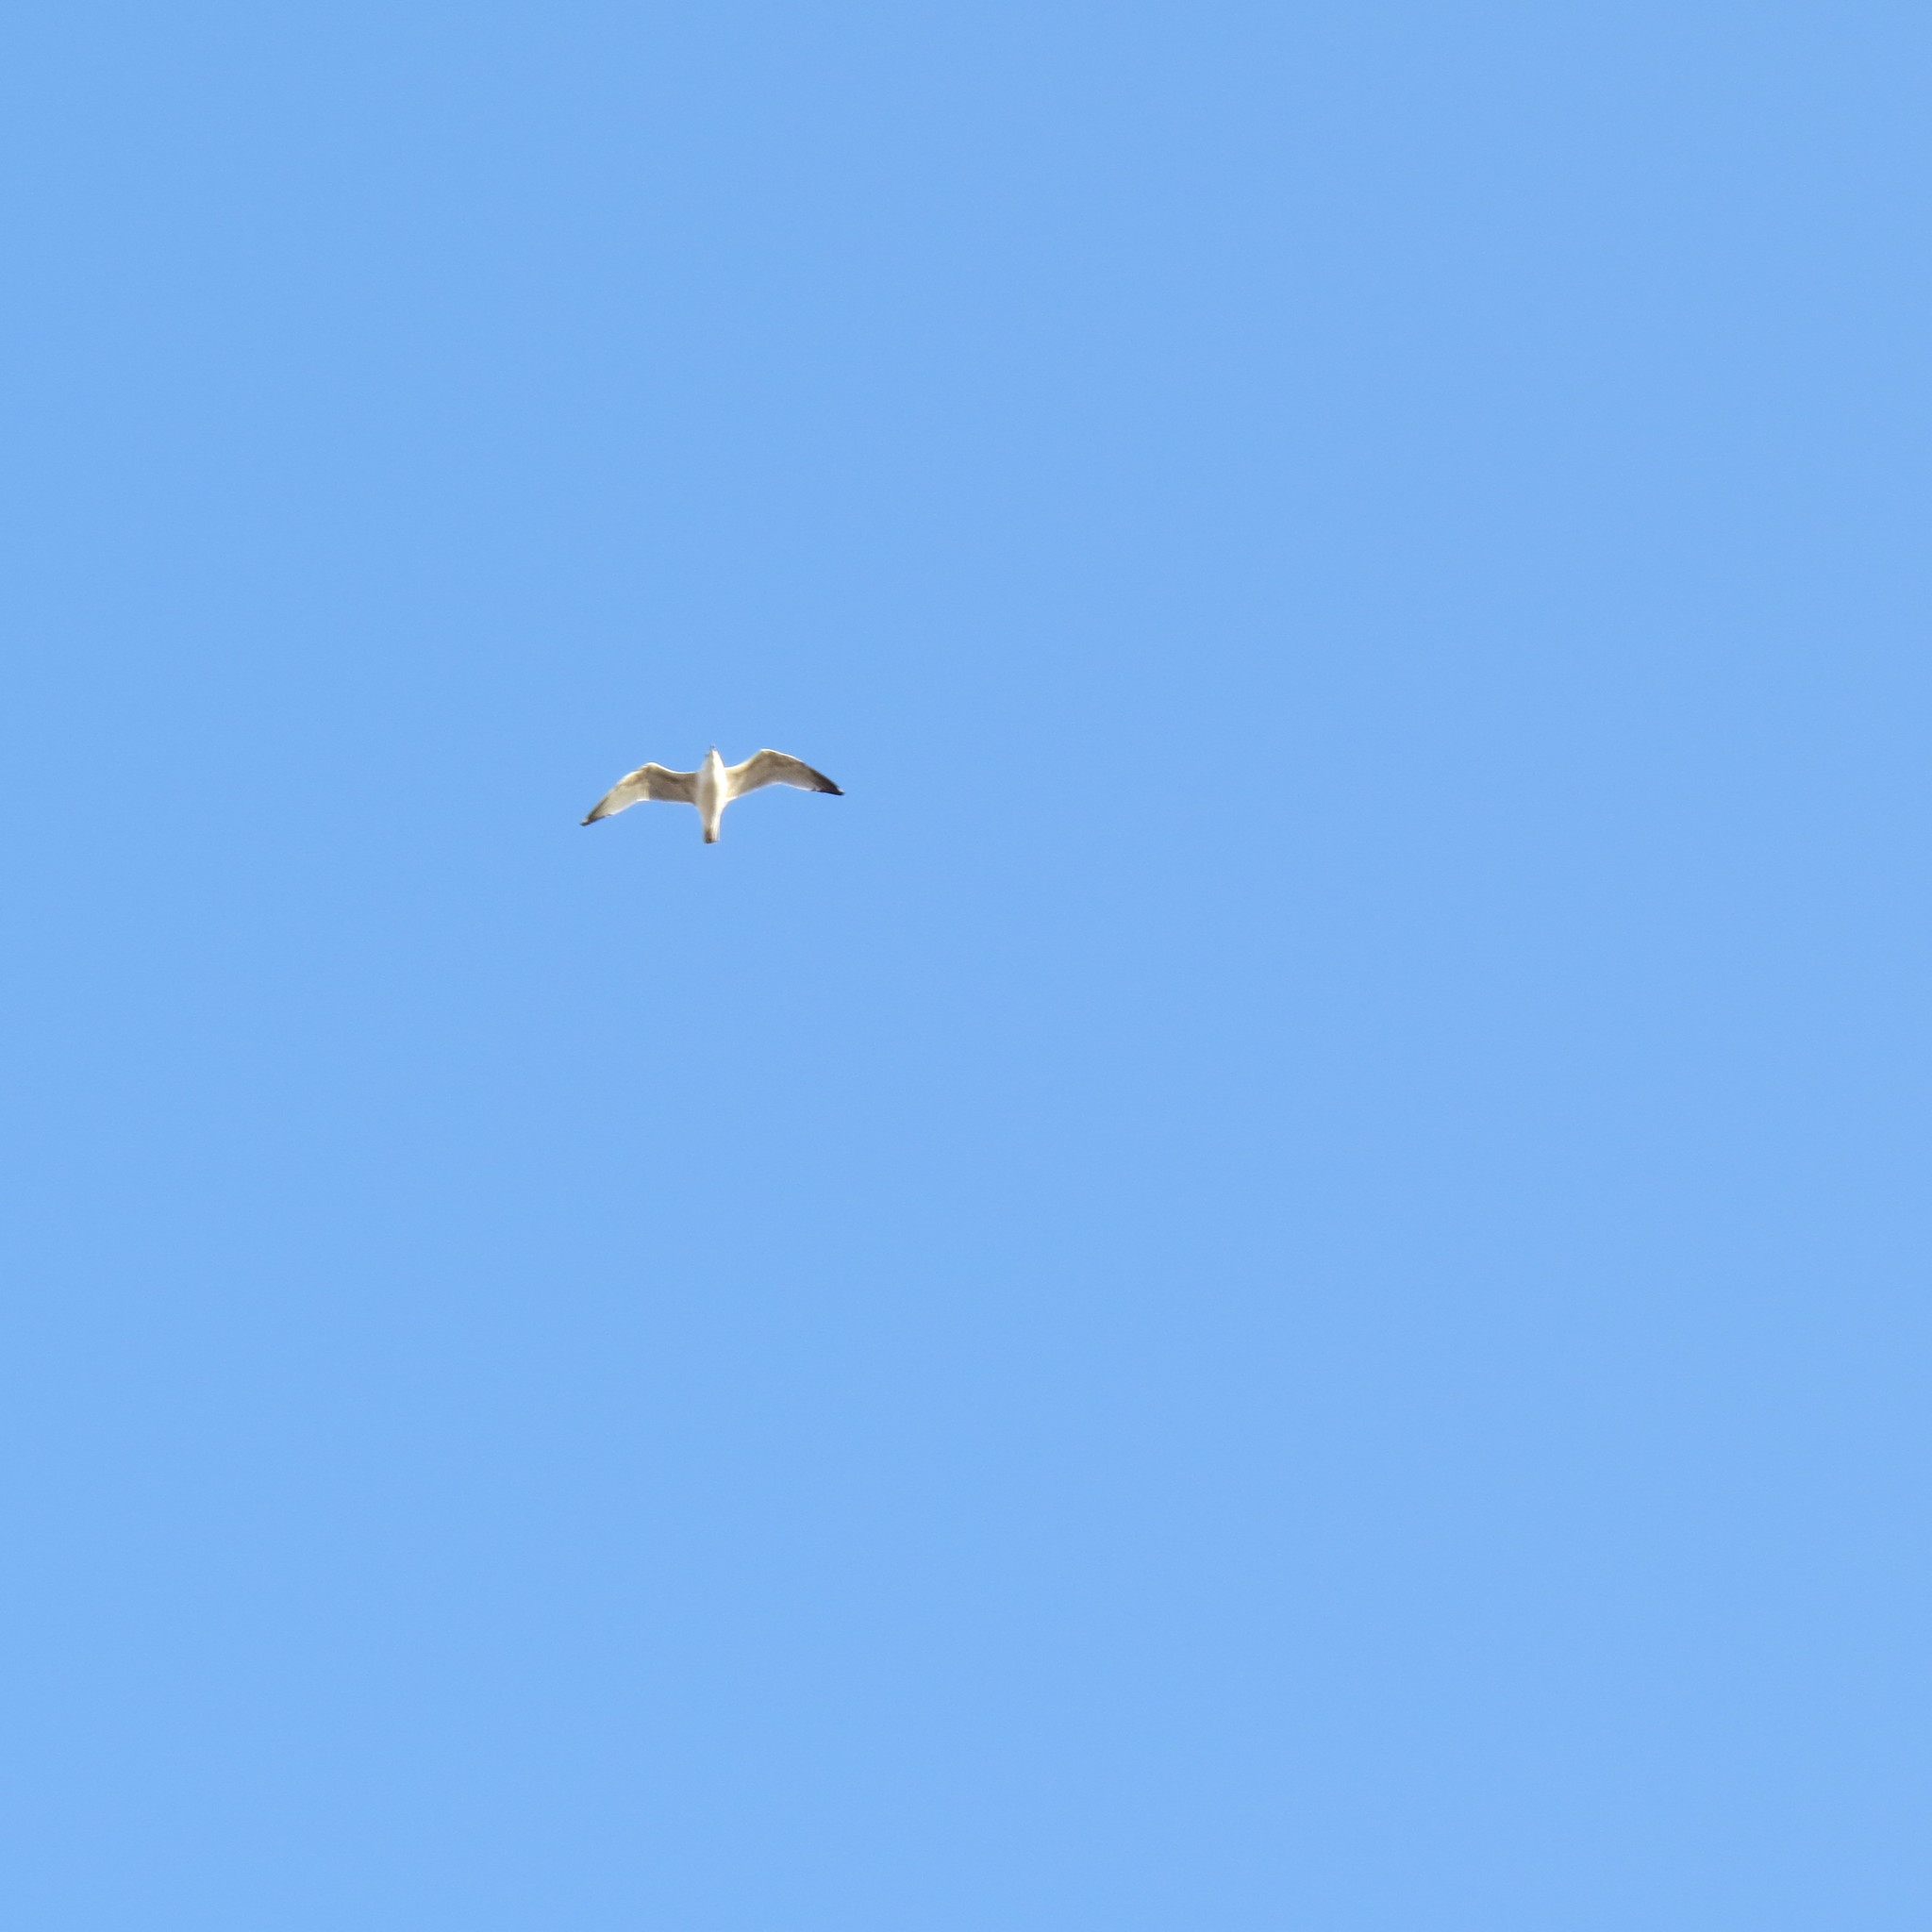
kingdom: Animalia
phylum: Chordata
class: Aves
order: Charadriiformes
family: Laridae
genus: Larus
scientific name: Larus argentatus
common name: Herring gull
